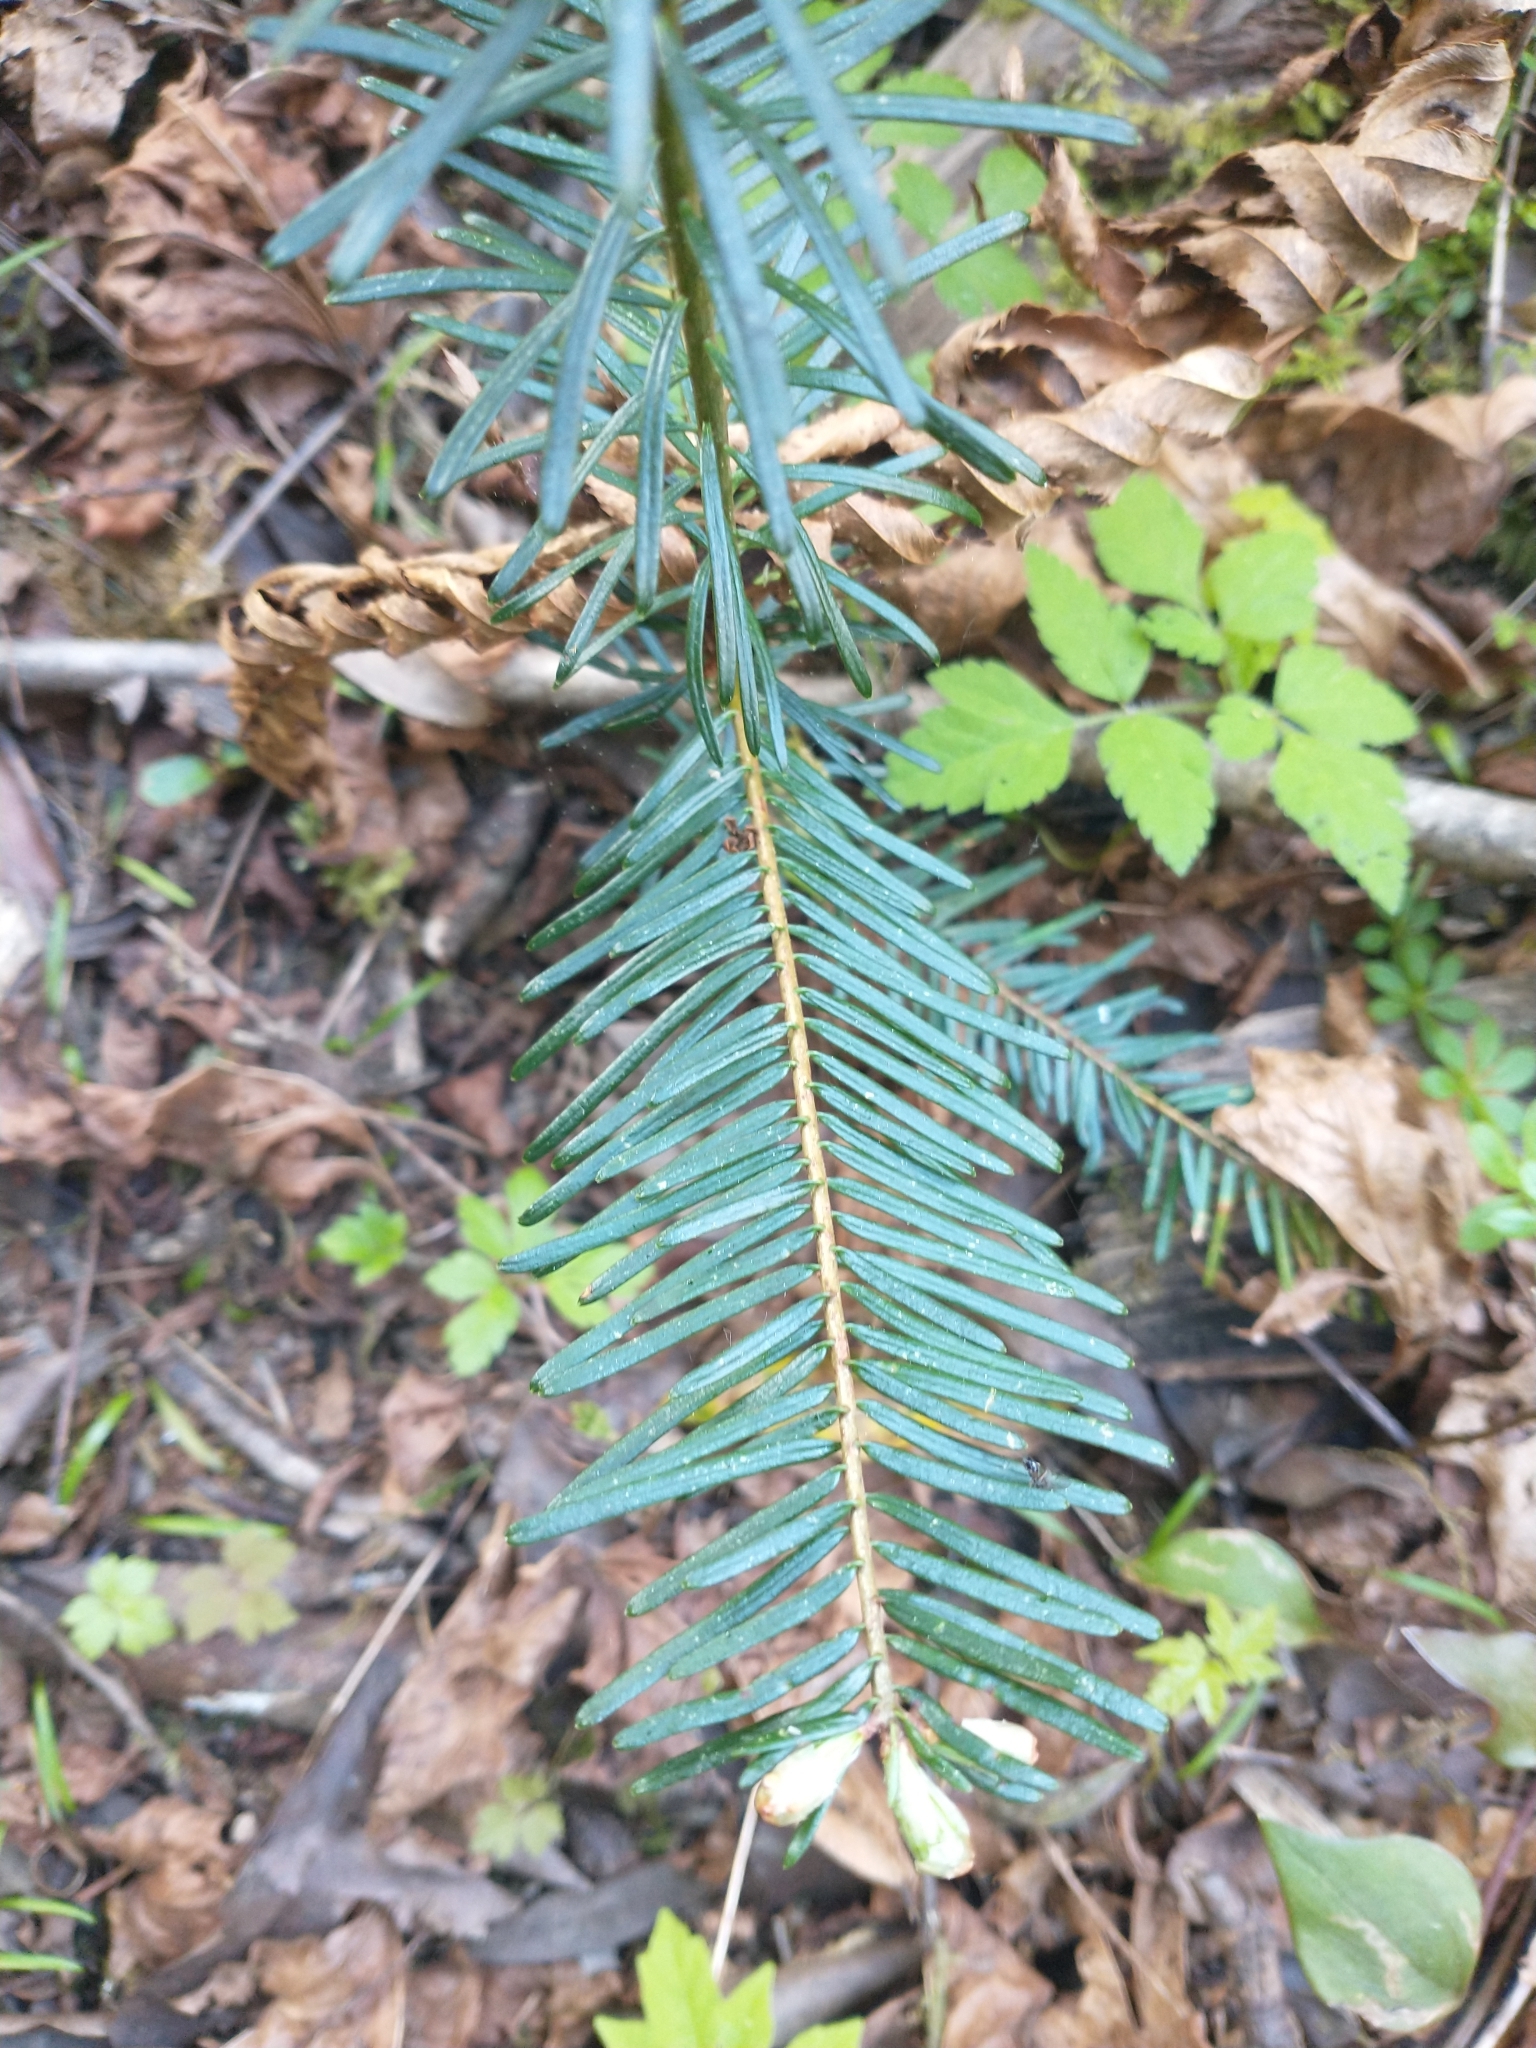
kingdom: Plantae
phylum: Tracheophyta
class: Pinopsida
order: Pinales
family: Pinaceae
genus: Abies
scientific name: Abies grandis
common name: Giant fir
